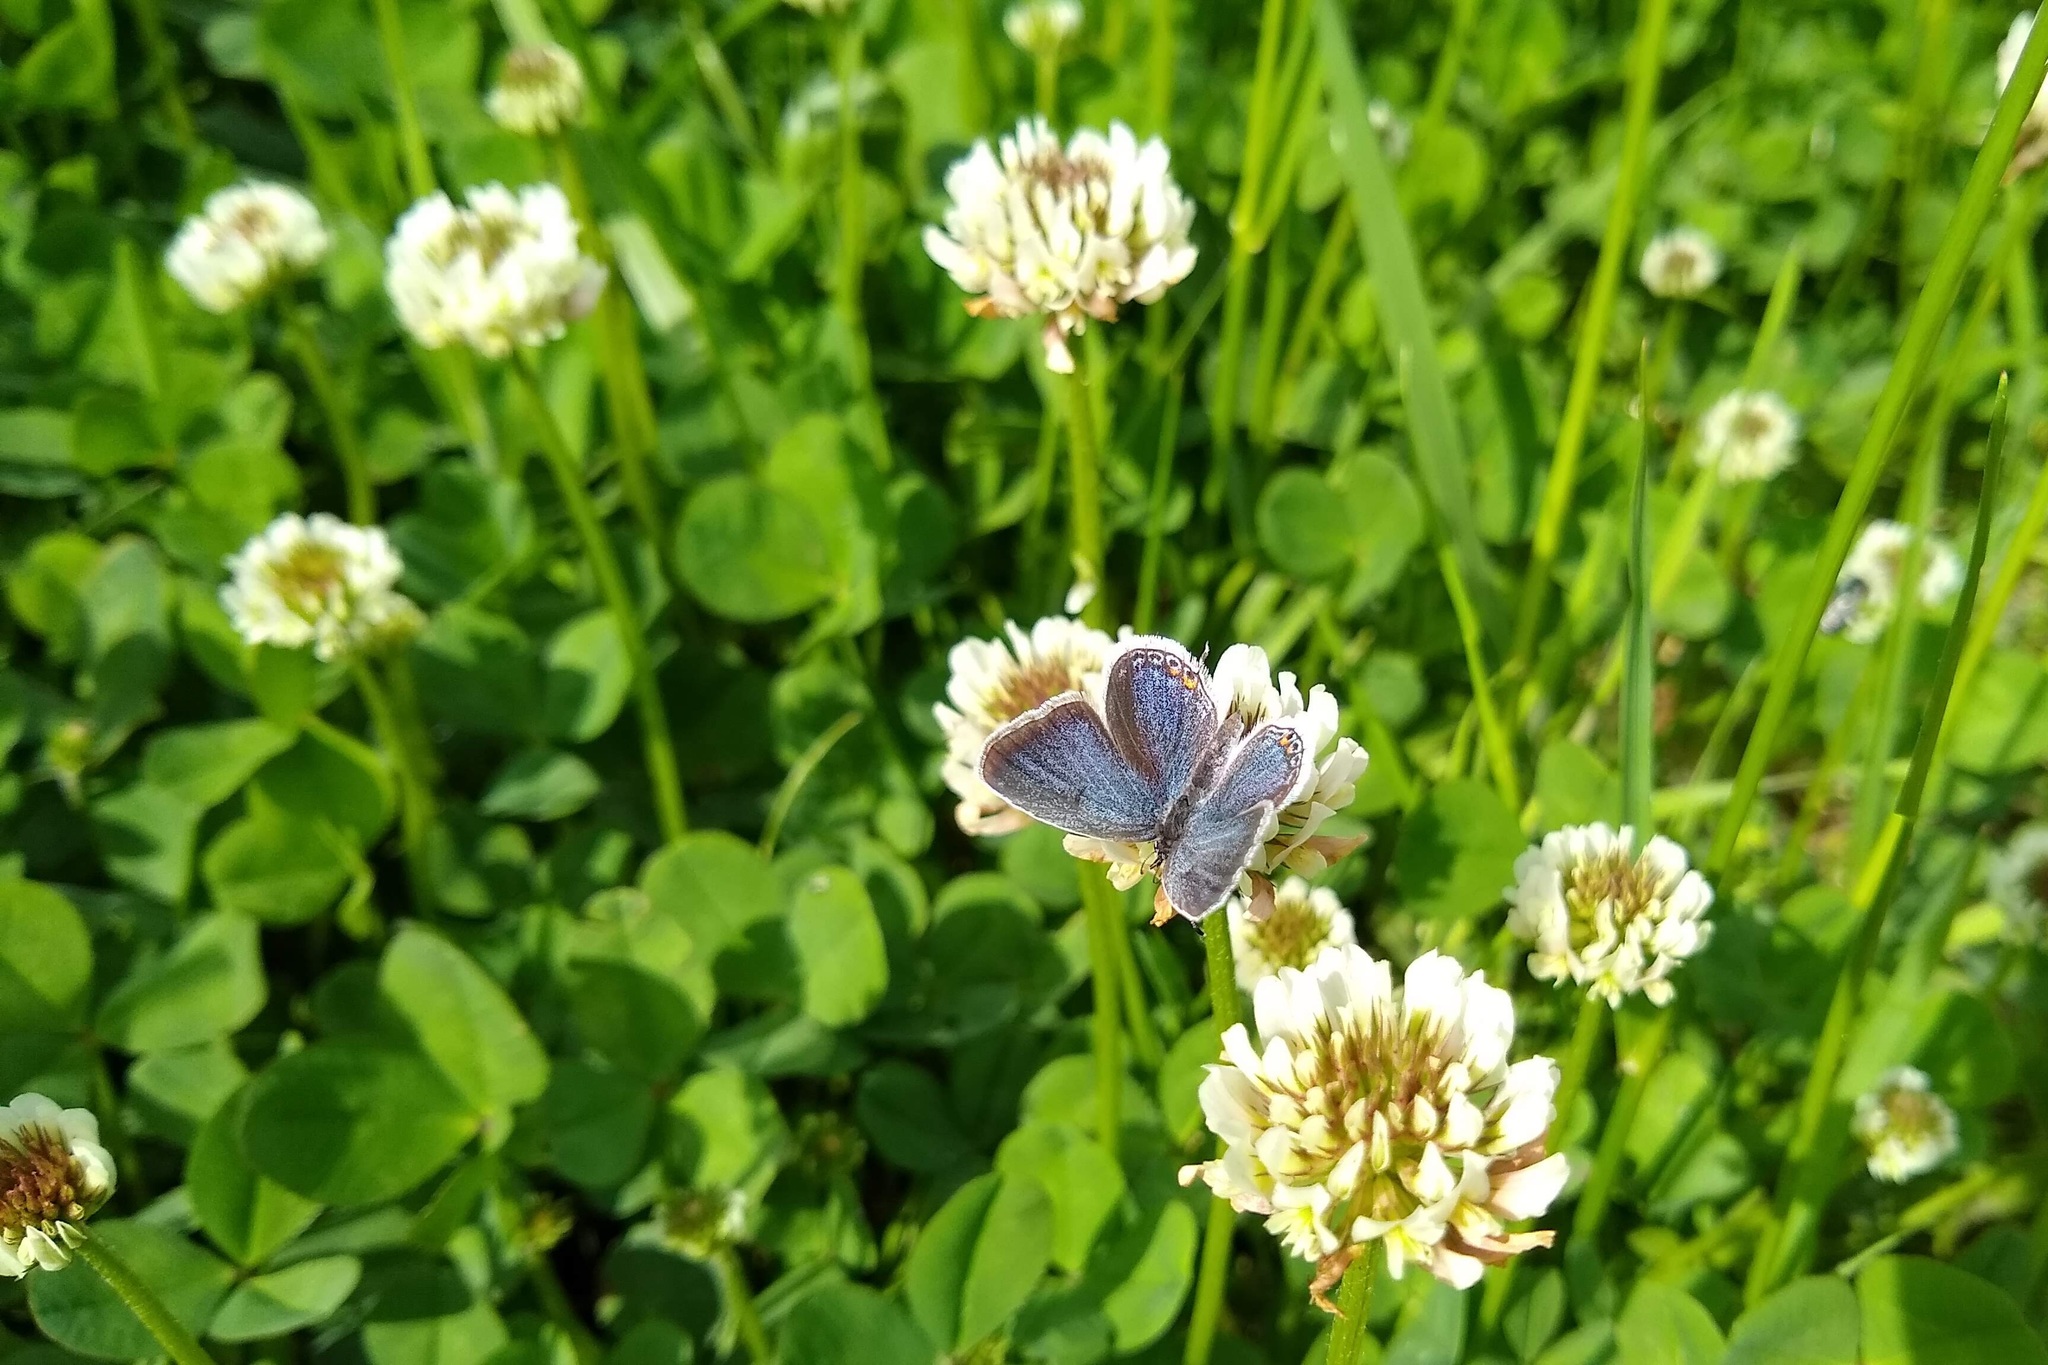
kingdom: Animalia
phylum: Arthropoda
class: Insecta
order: Lepidoptera
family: Lycaenidae
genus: Elkalyce
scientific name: Elkalyce comyntas
